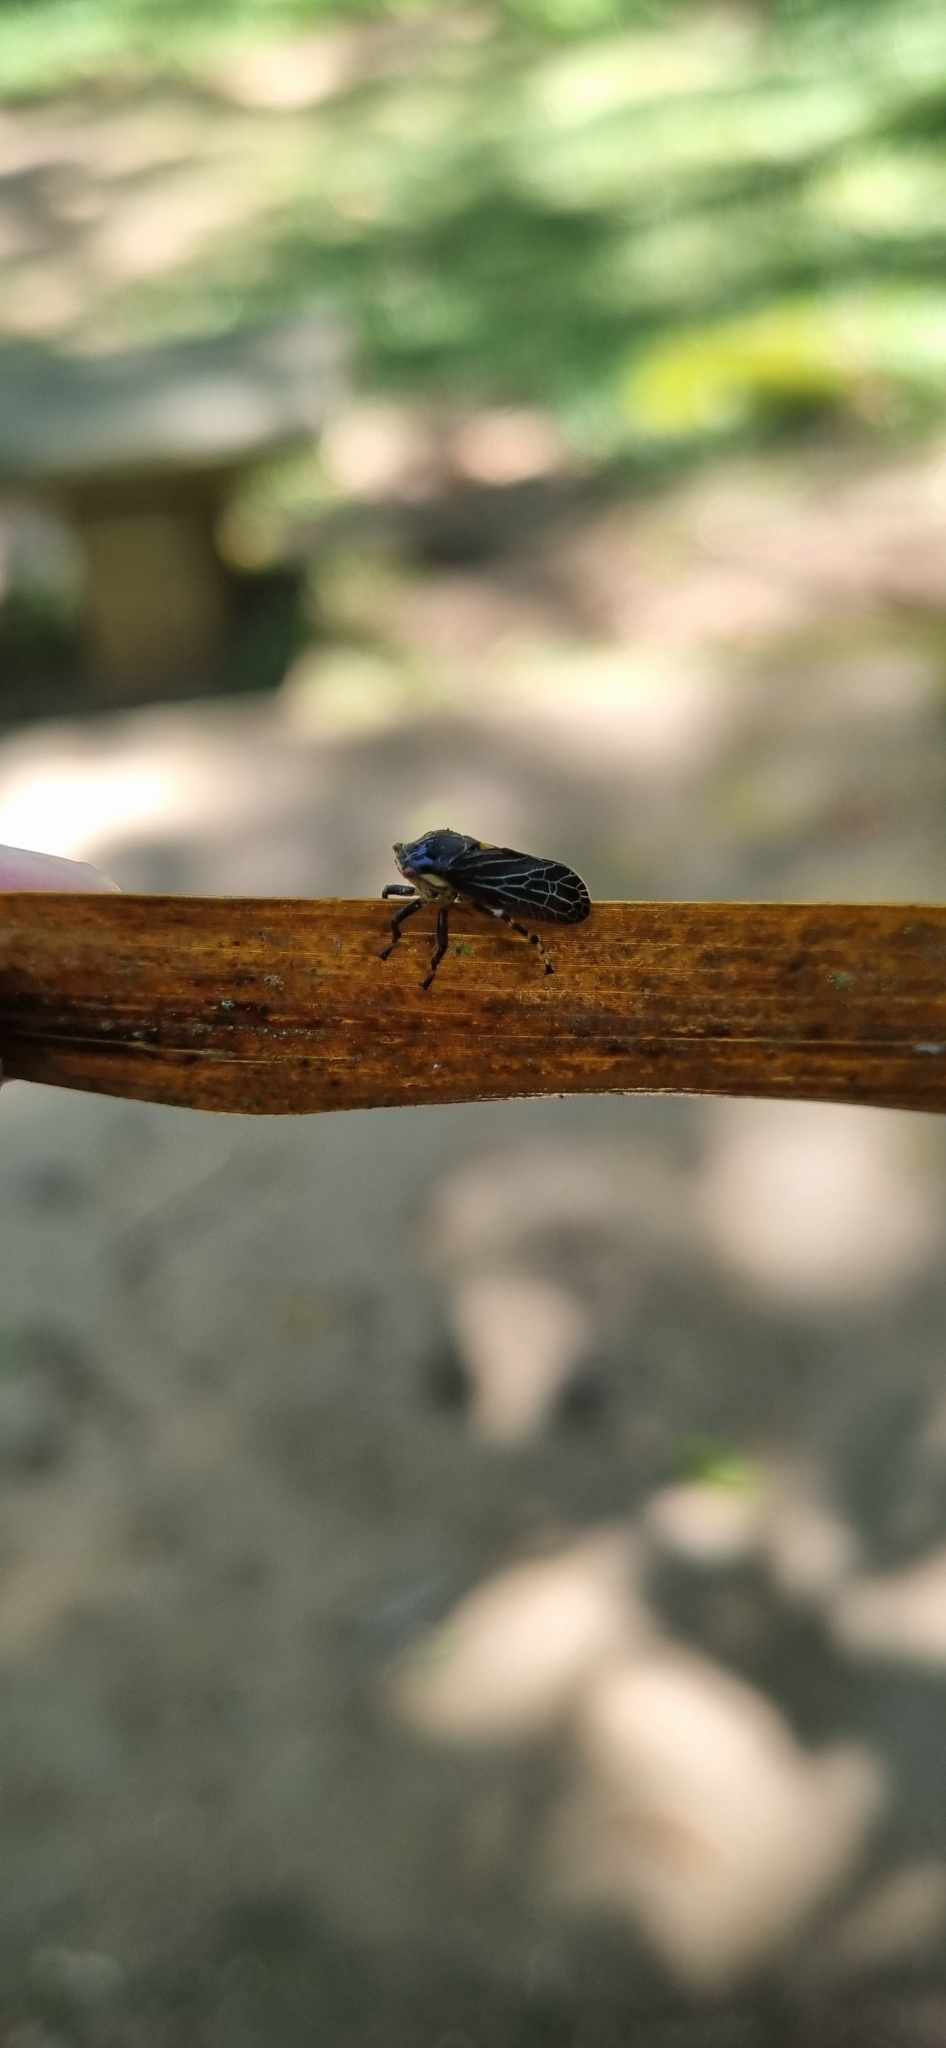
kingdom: Animalia
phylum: Arthropoda
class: Insecta
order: Hemiptera
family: Aetalionidae
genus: Aetalion
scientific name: Aetalion reticulatum
